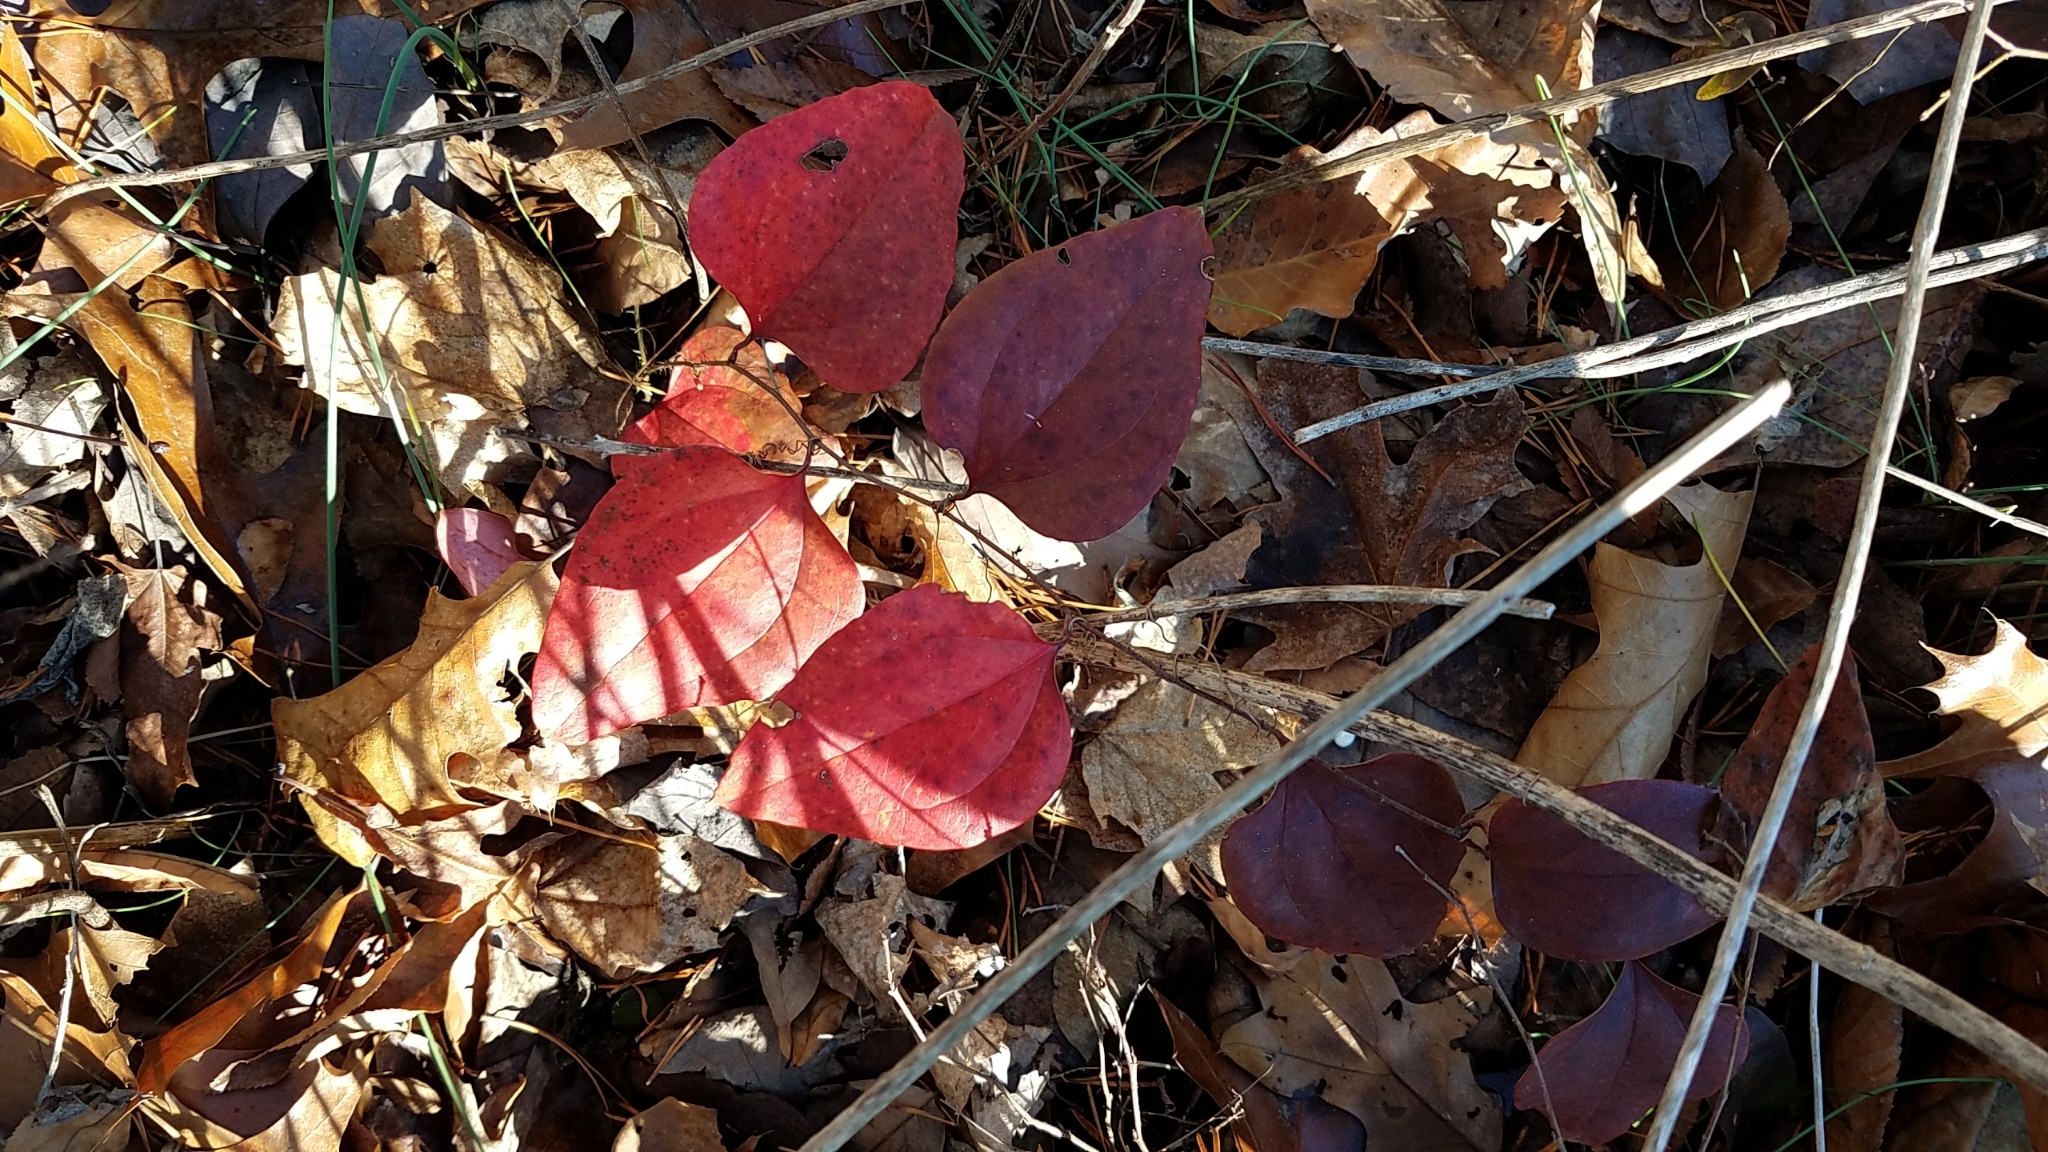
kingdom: Plantae
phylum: Tracheophyta
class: Liliopsida
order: Liliales
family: Smilacaceae
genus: Smilax
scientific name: Smilax glauca
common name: Cat greenbrier
